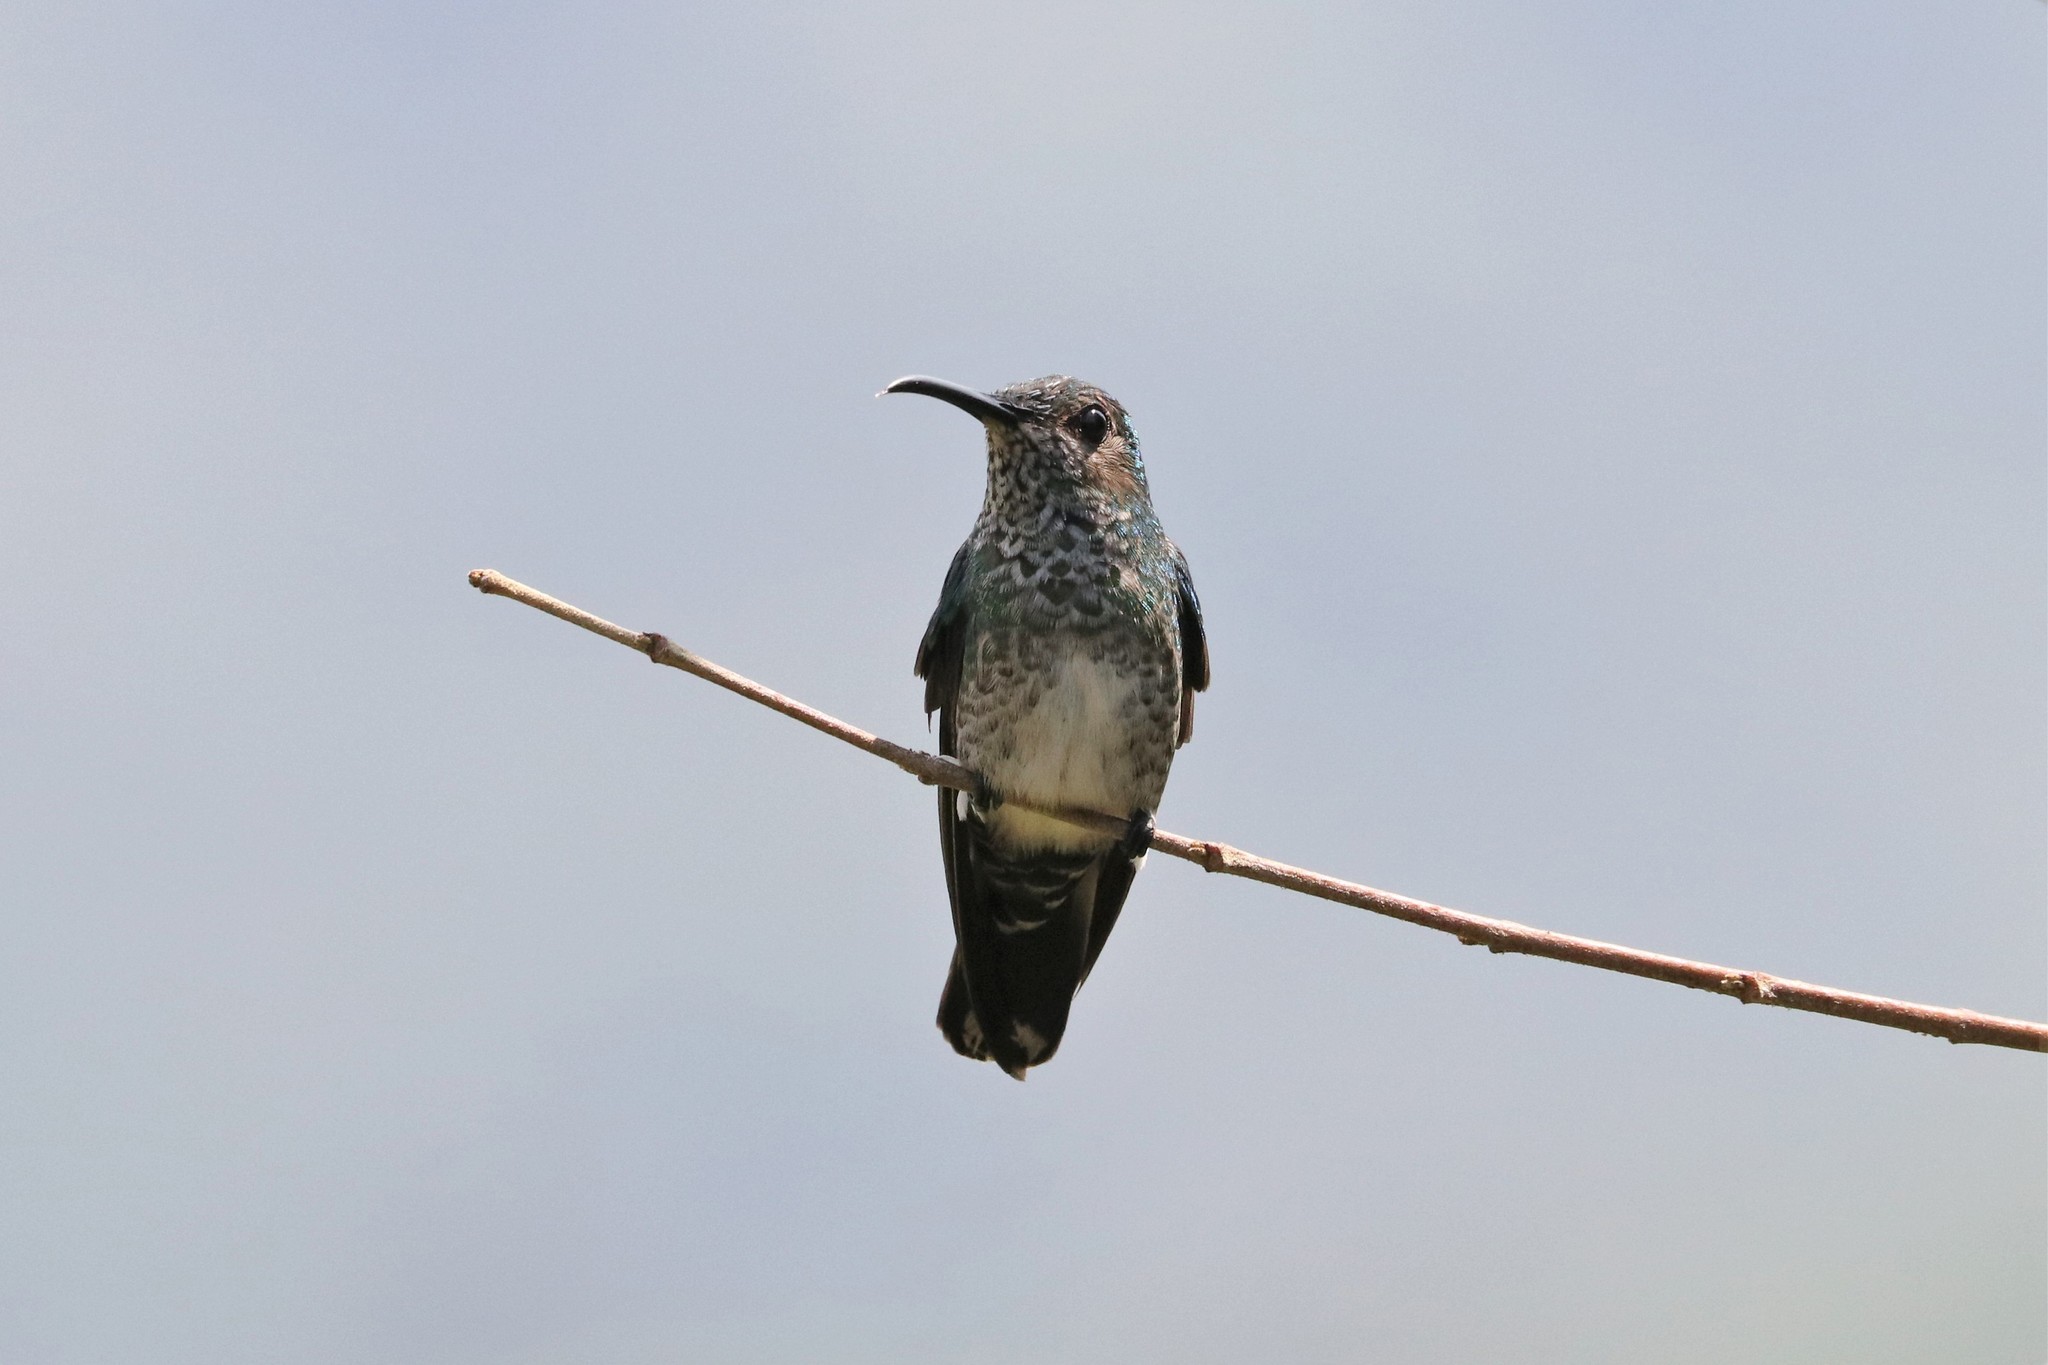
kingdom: Animalia
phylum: Chordata
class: Aves
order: Apodiformes
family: Trochilidae
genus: Florisuga
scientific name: Florisuga mellivora
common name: White-necked jacobin
